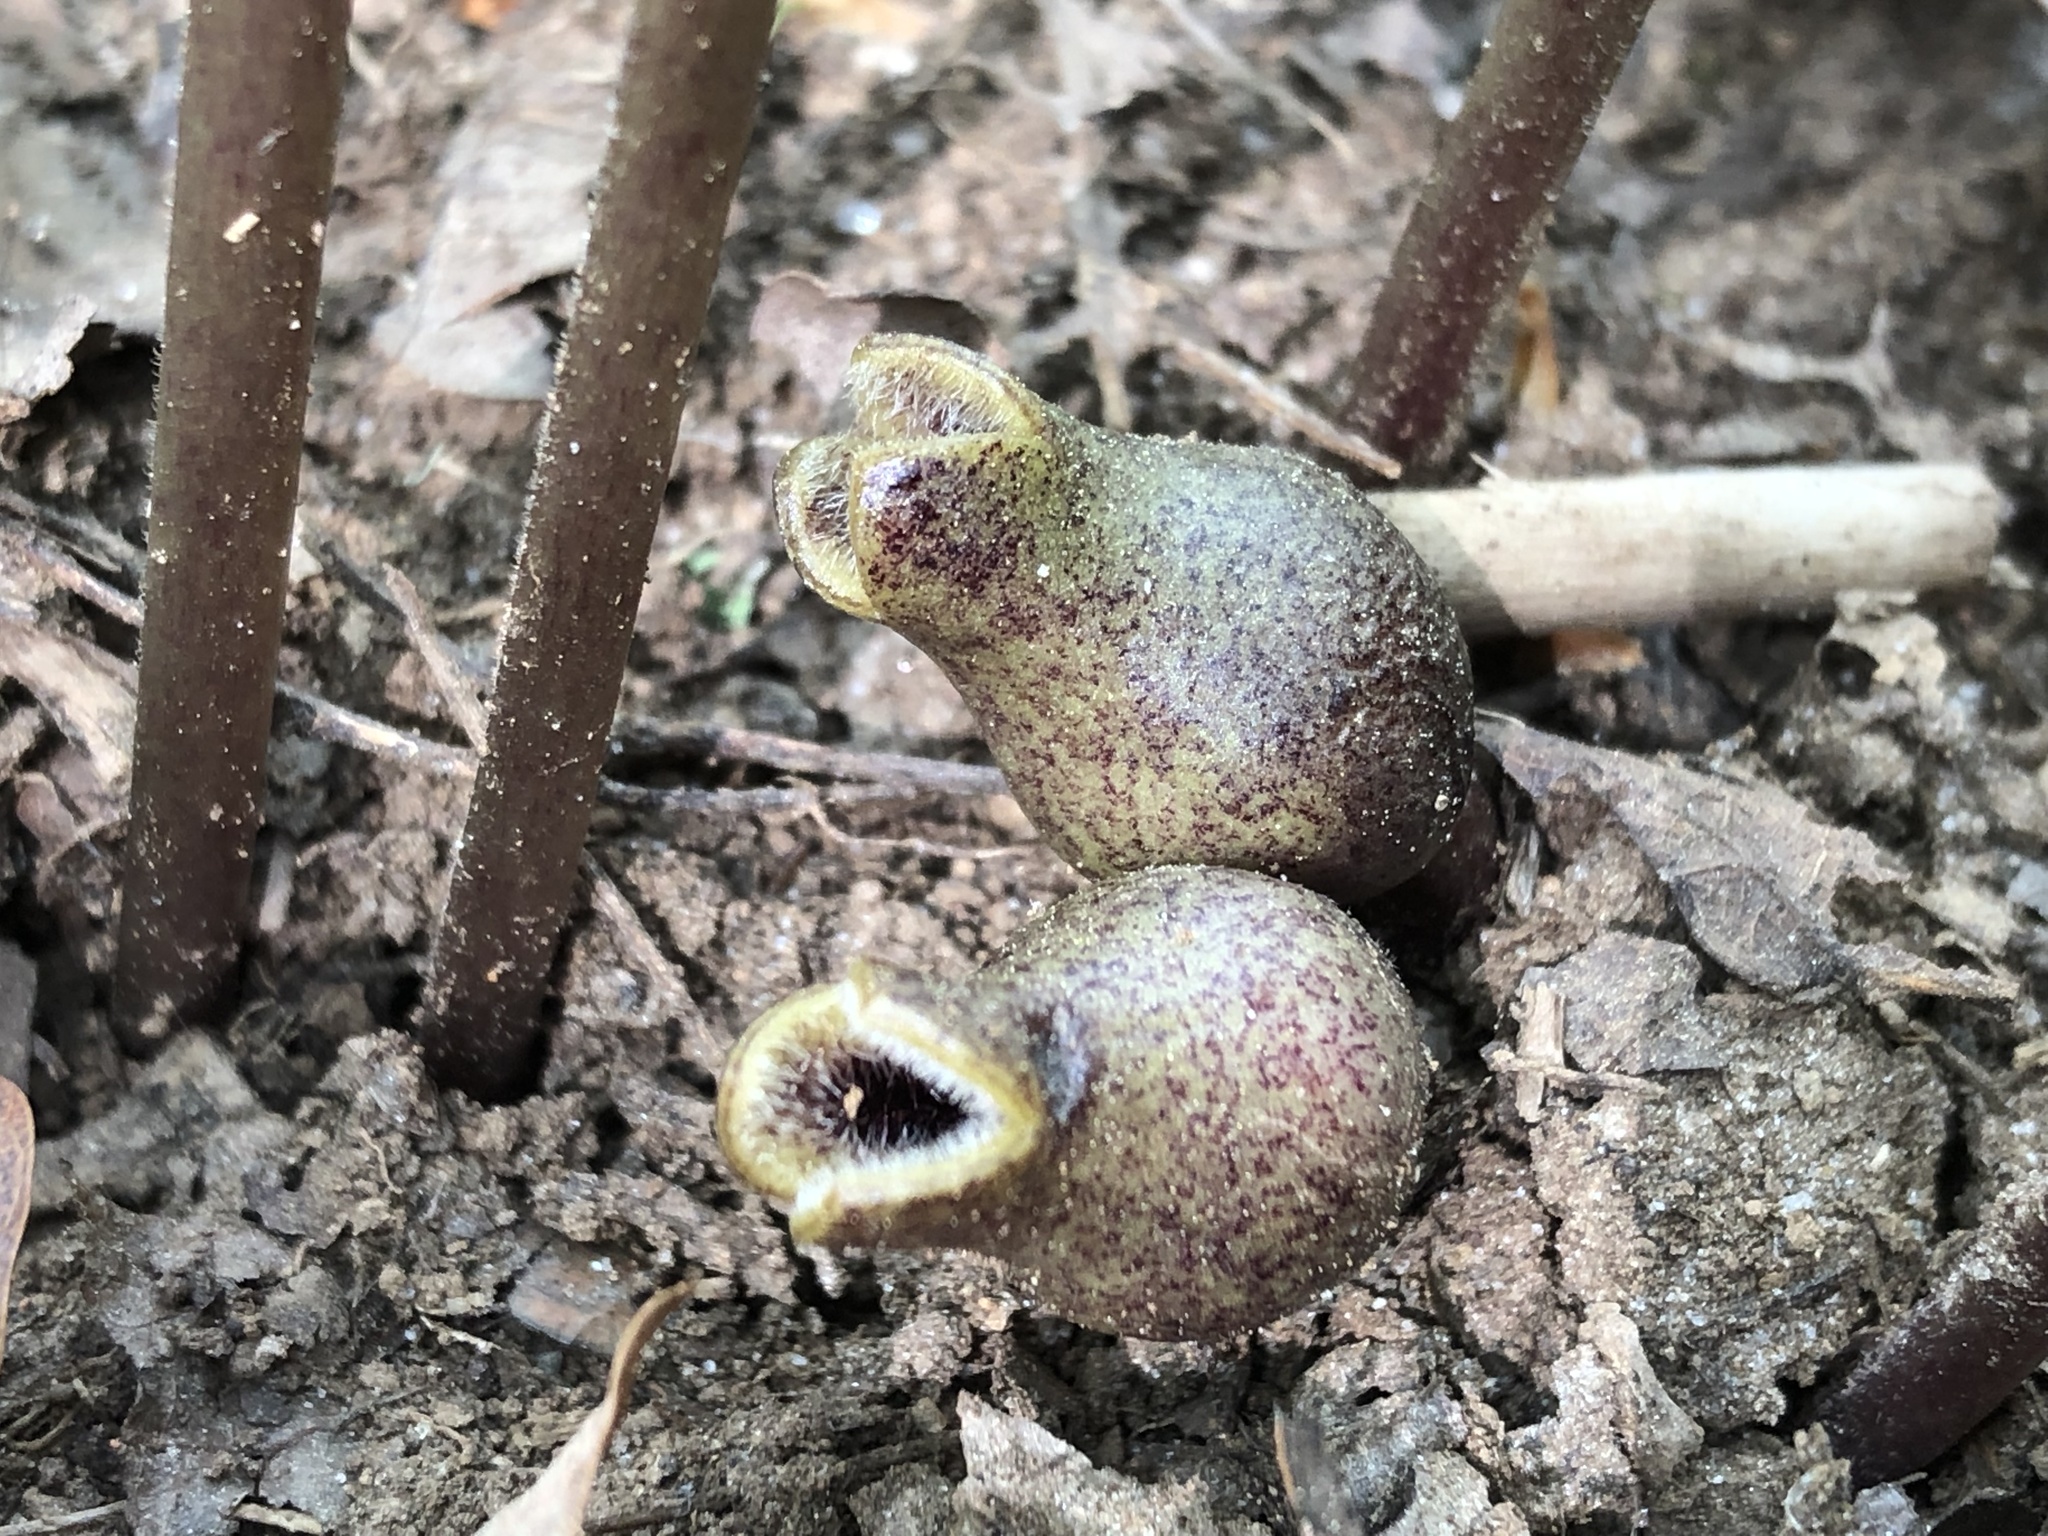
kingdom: Plantae
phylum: Tracheophyta
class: Magnoliopsida
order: Piperales
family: Aristolochiaceae
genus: Hexastylis
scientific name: Hexastylis arifolia
